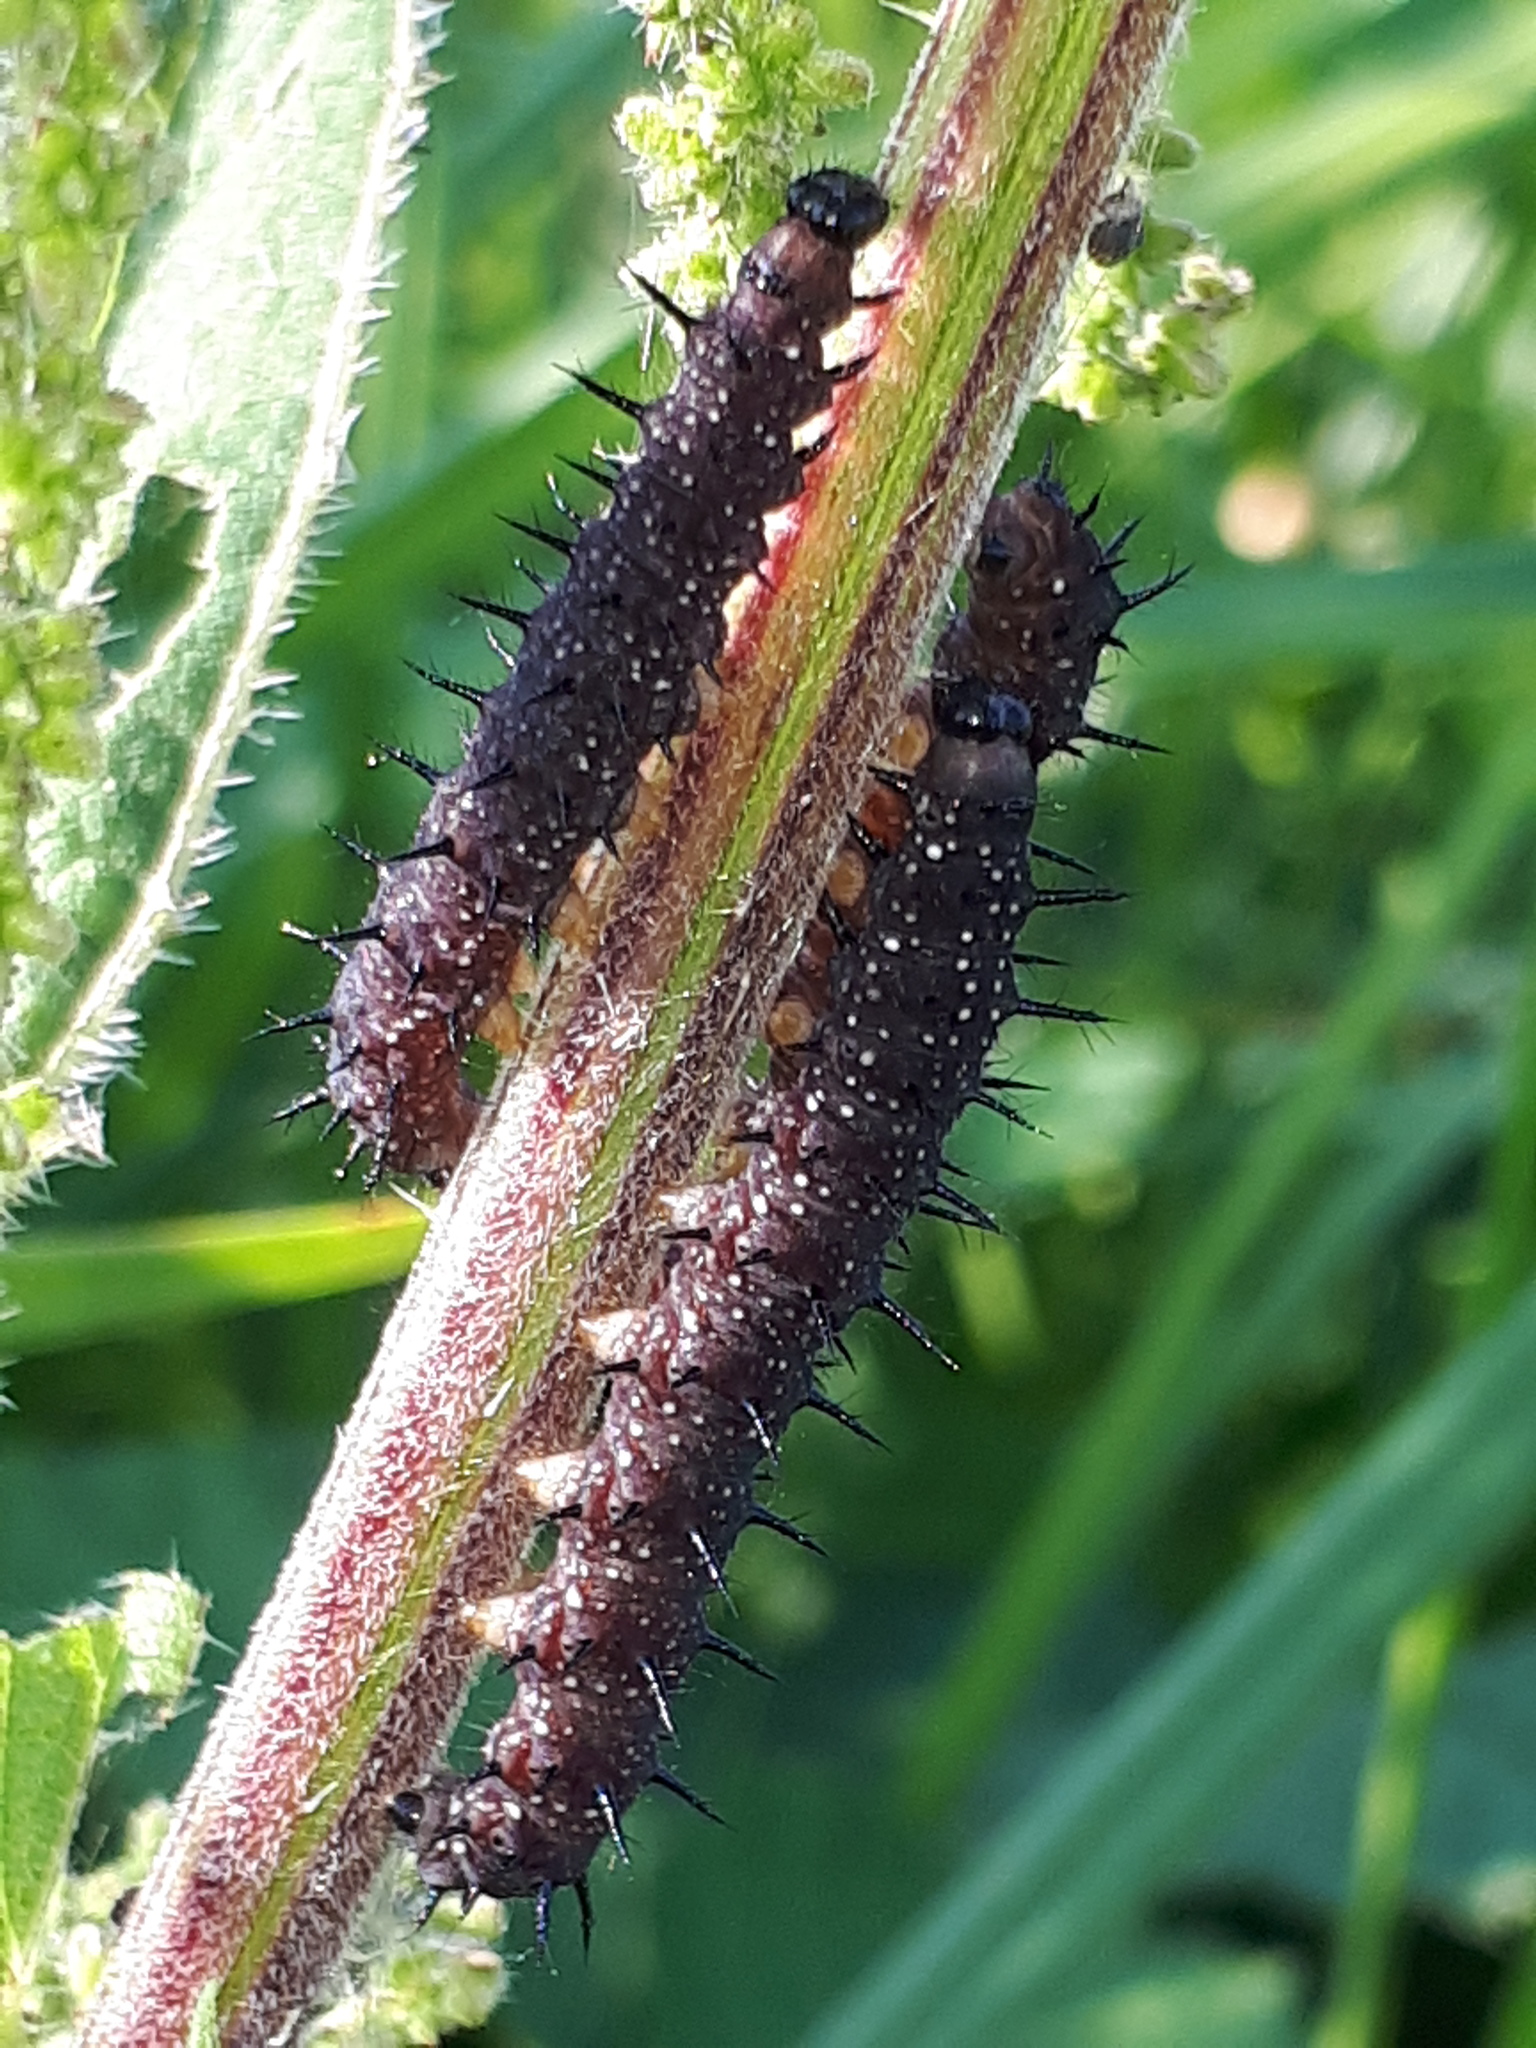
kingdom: Animalia
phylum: Arthropoda
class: Insecta
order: Lepidoptera
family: Nymphalidae
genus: Aglais
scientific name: Aglais io
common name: Peacock
